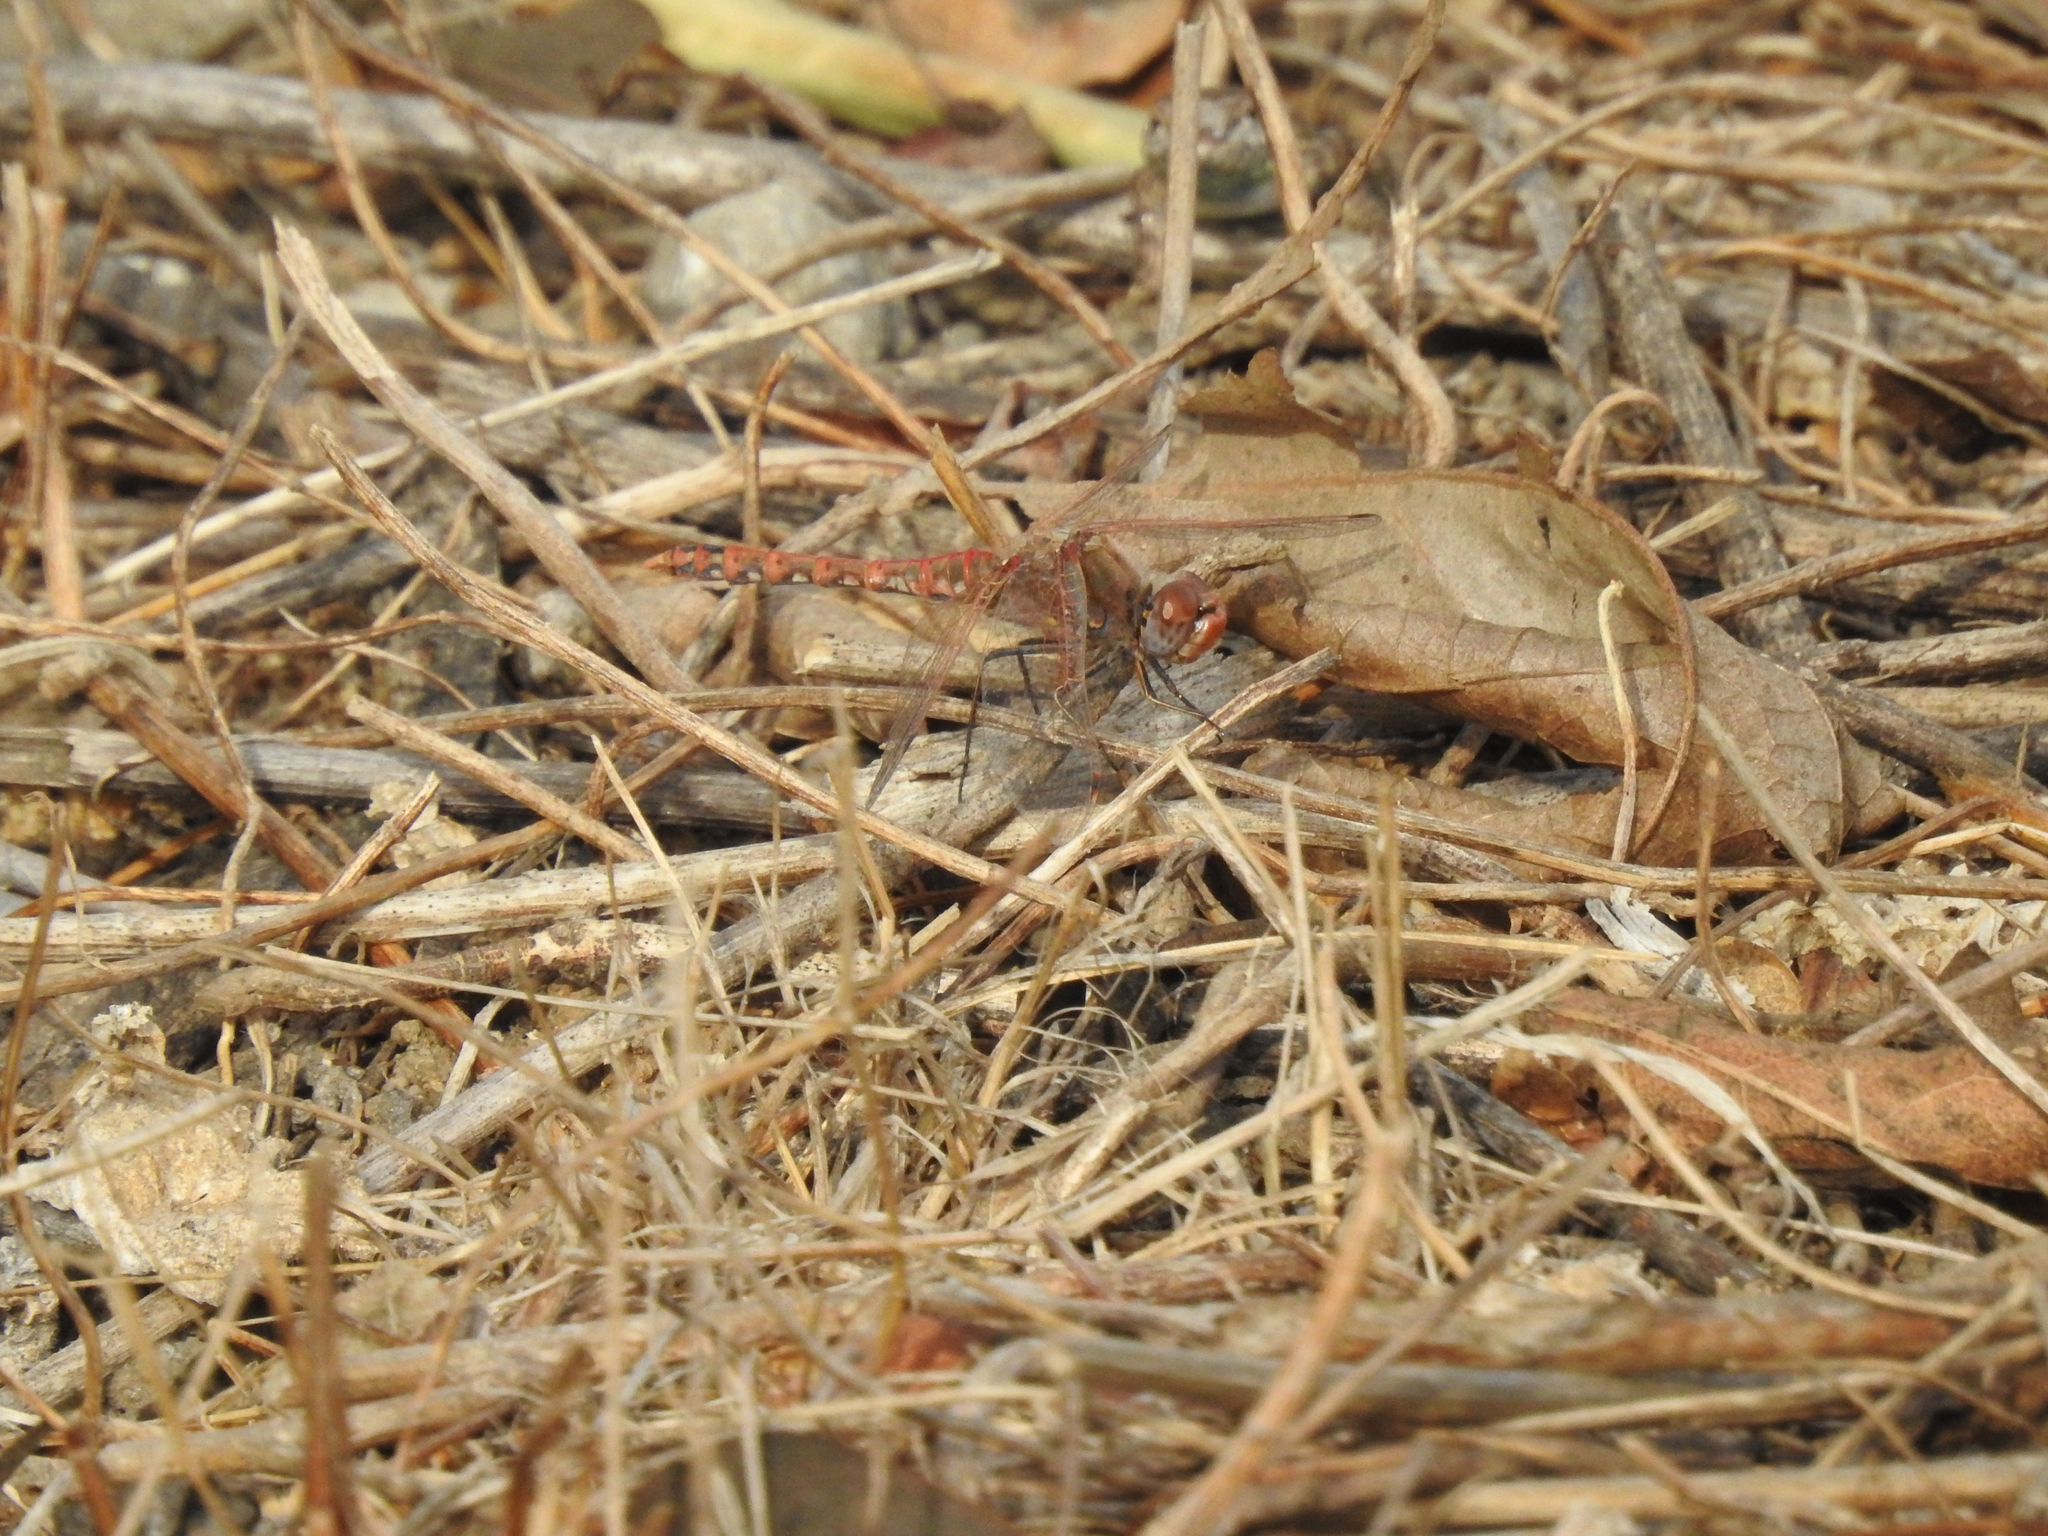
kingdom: Animalia
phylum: Arthropoda
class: Insecta
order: Odonata
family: Libellulidae
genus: Sympetrum
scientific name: Sympetrum corruptum
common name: Variegated meadowhawk
